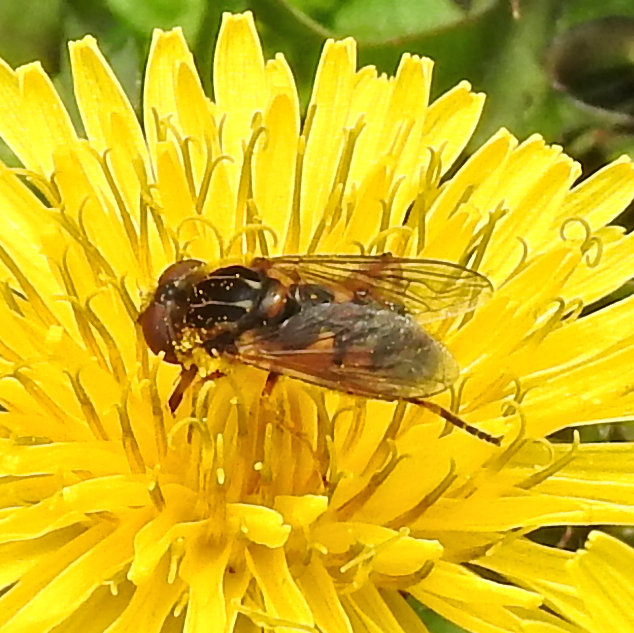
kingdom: Animalia
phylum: Arthropoda
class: Insecta
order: Diptera
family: Syrphidae
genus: Eurimyia
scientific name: Eurimyia stipatus
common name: Long-nosed swamp fly
